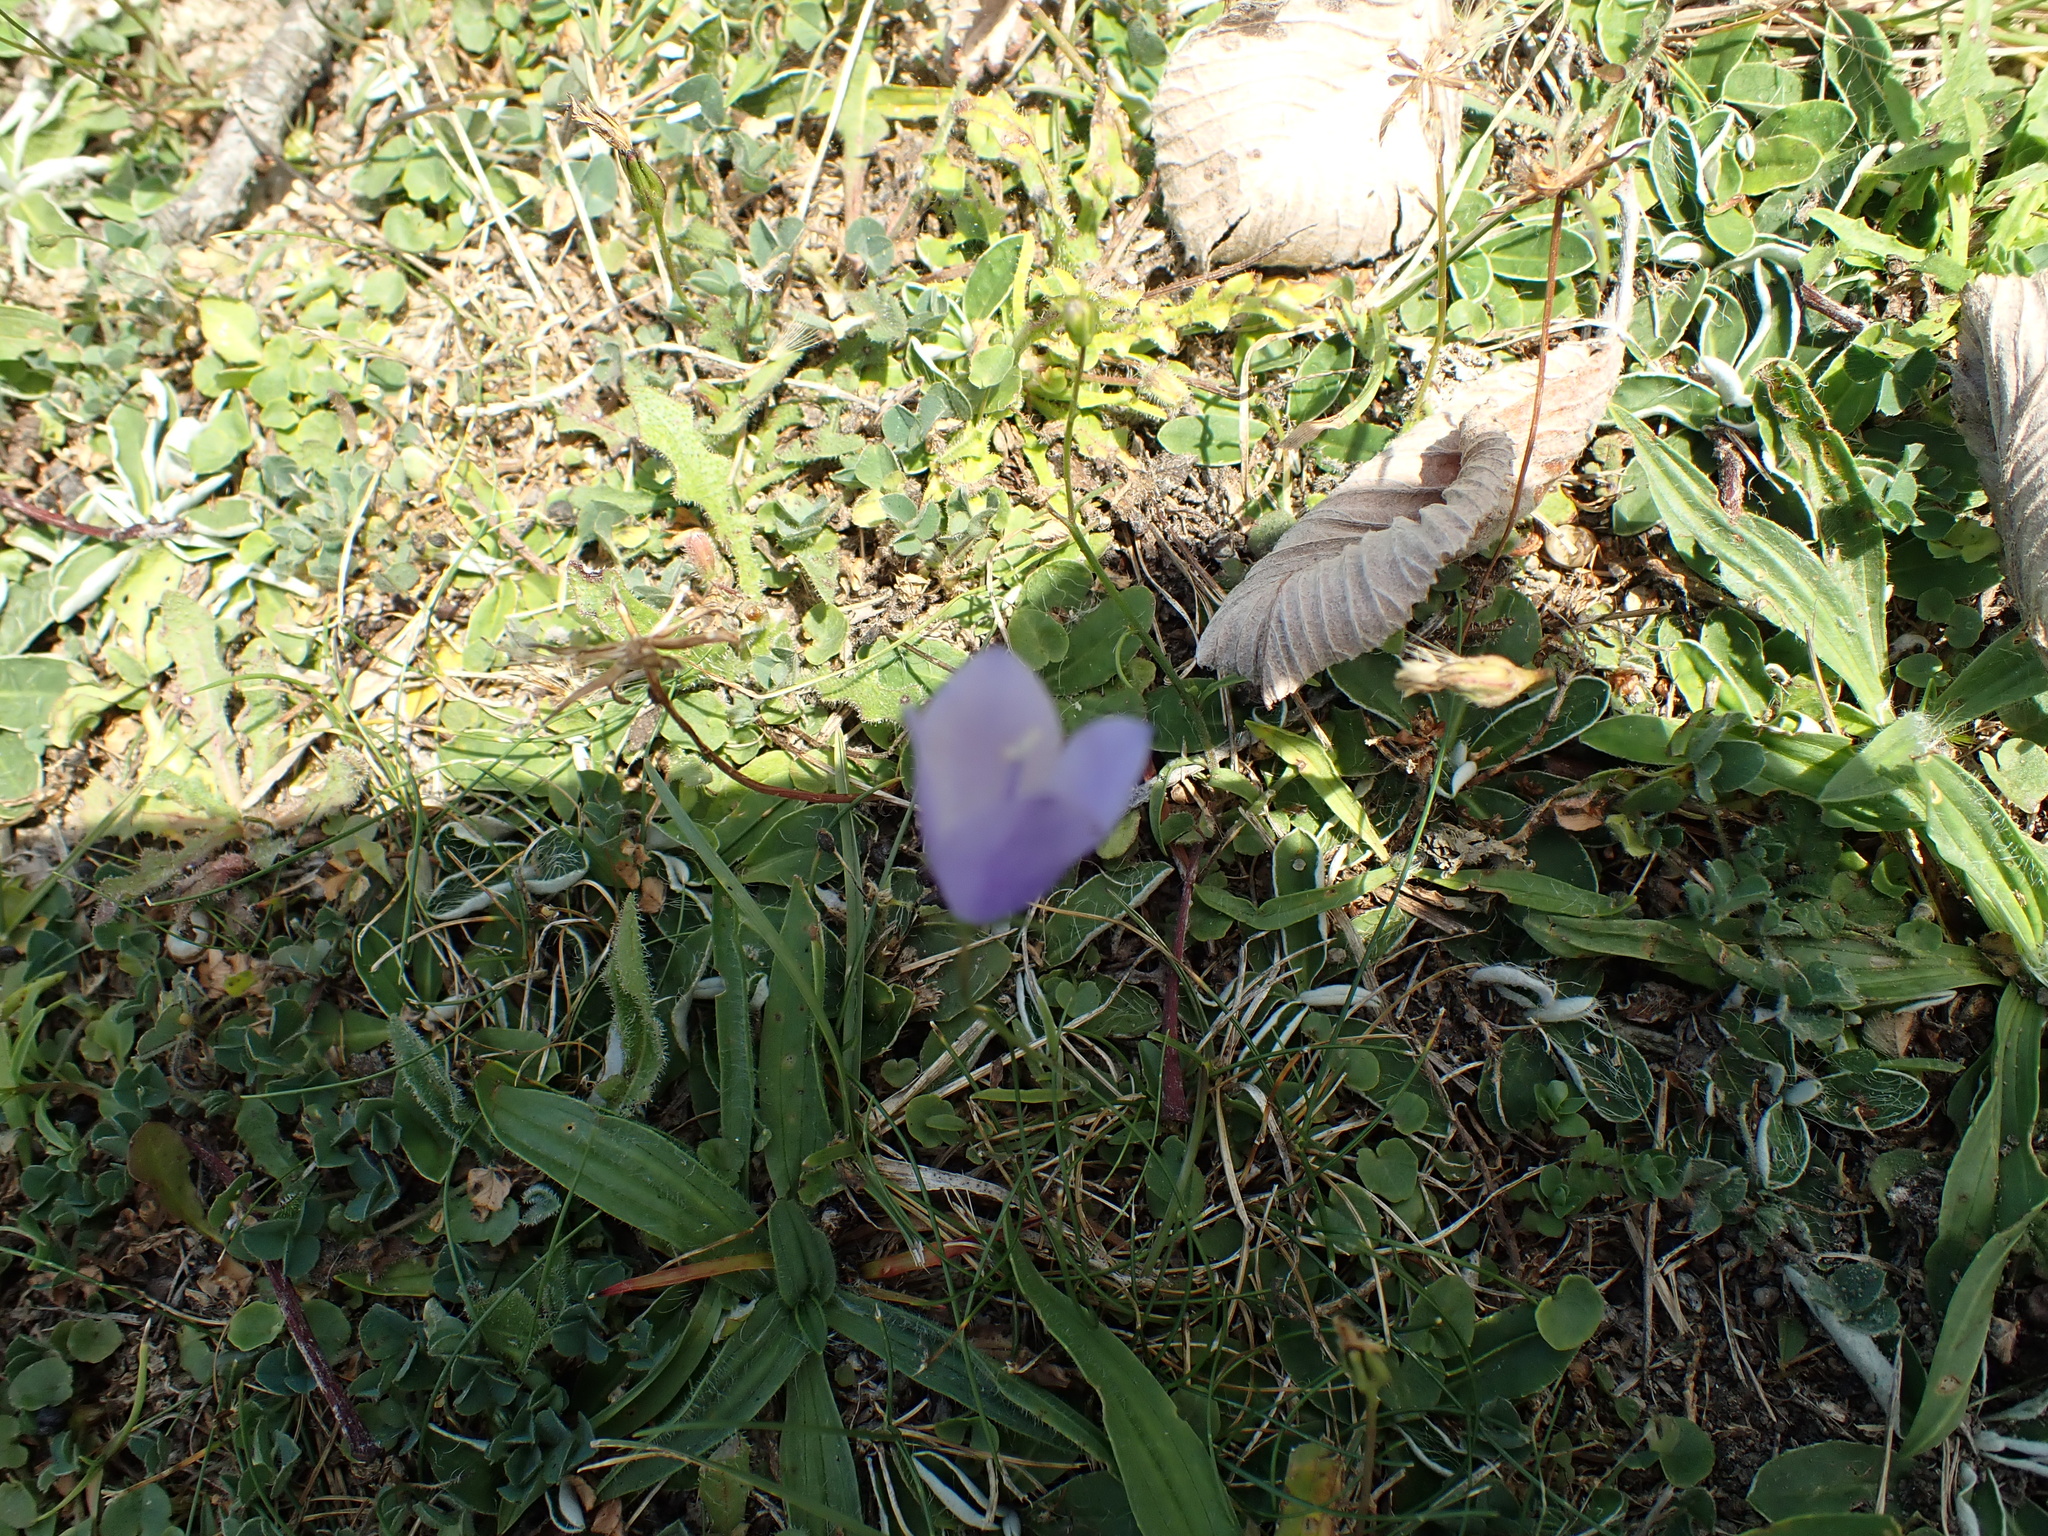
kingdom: Plantae
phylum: Tracheophyta
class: Magnoliopsida
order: Asterales
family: Campanulaceae
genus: Campanula
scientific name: Campanula rotundifolia
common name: Harebell
